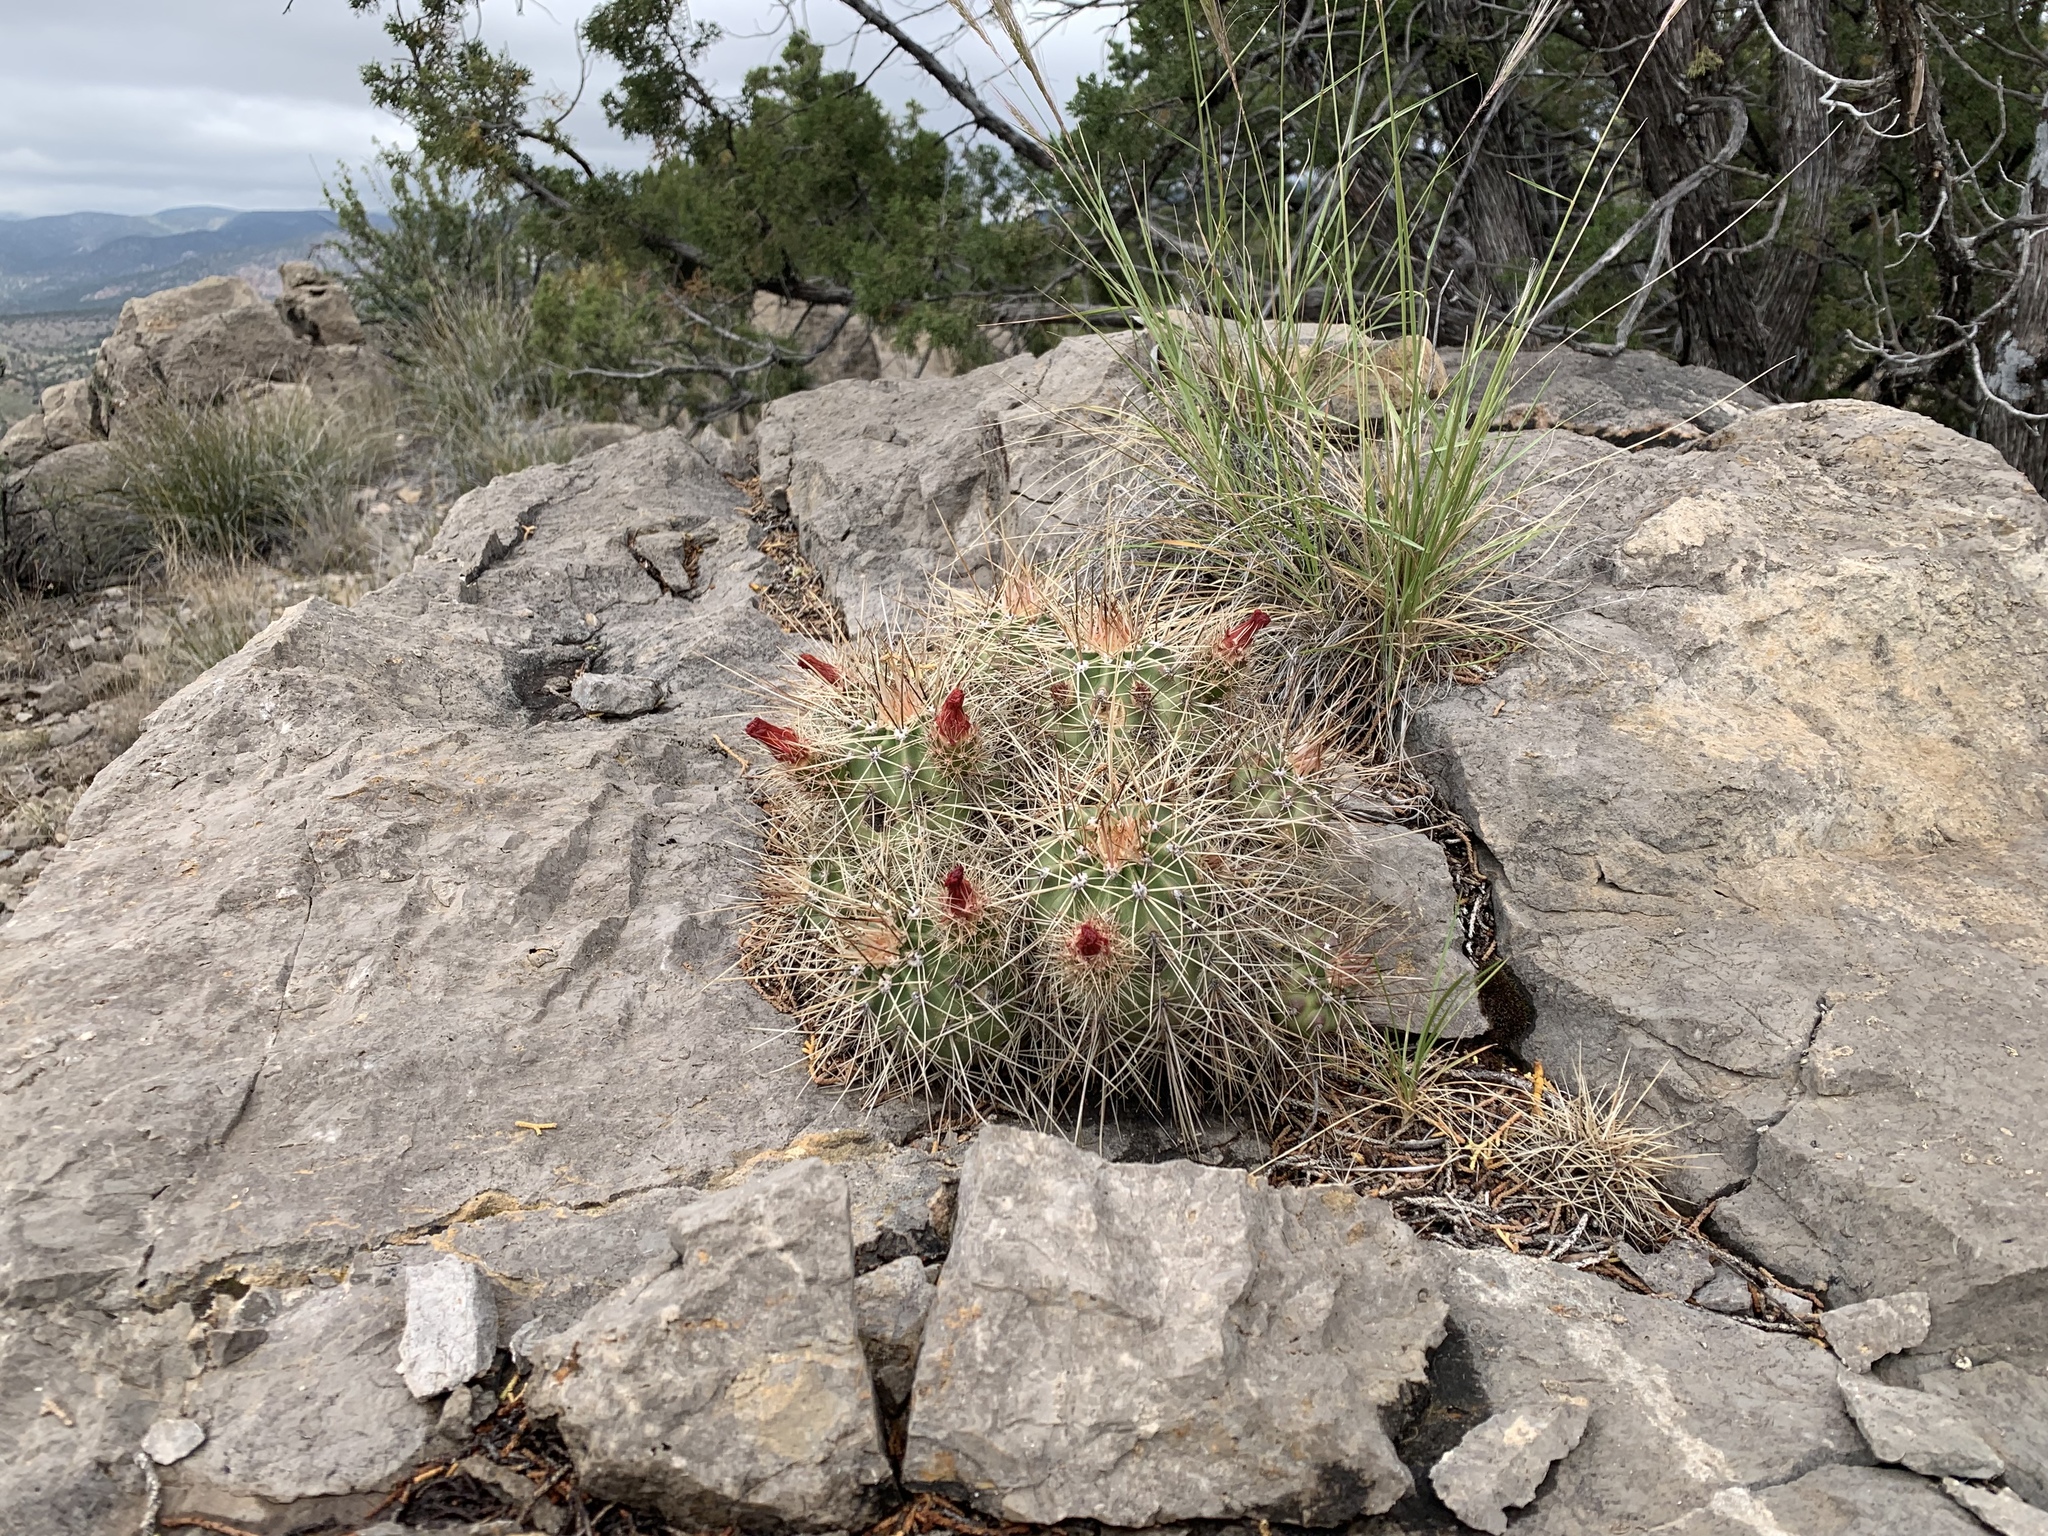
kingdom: Plantae
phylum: Tracheophyta
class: Magnoliopsida
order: Caryophyllales
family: Cactaceae
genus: Echinocereus
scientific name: Echinocereus coccineus
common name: Scarlet hedgehog cactus
